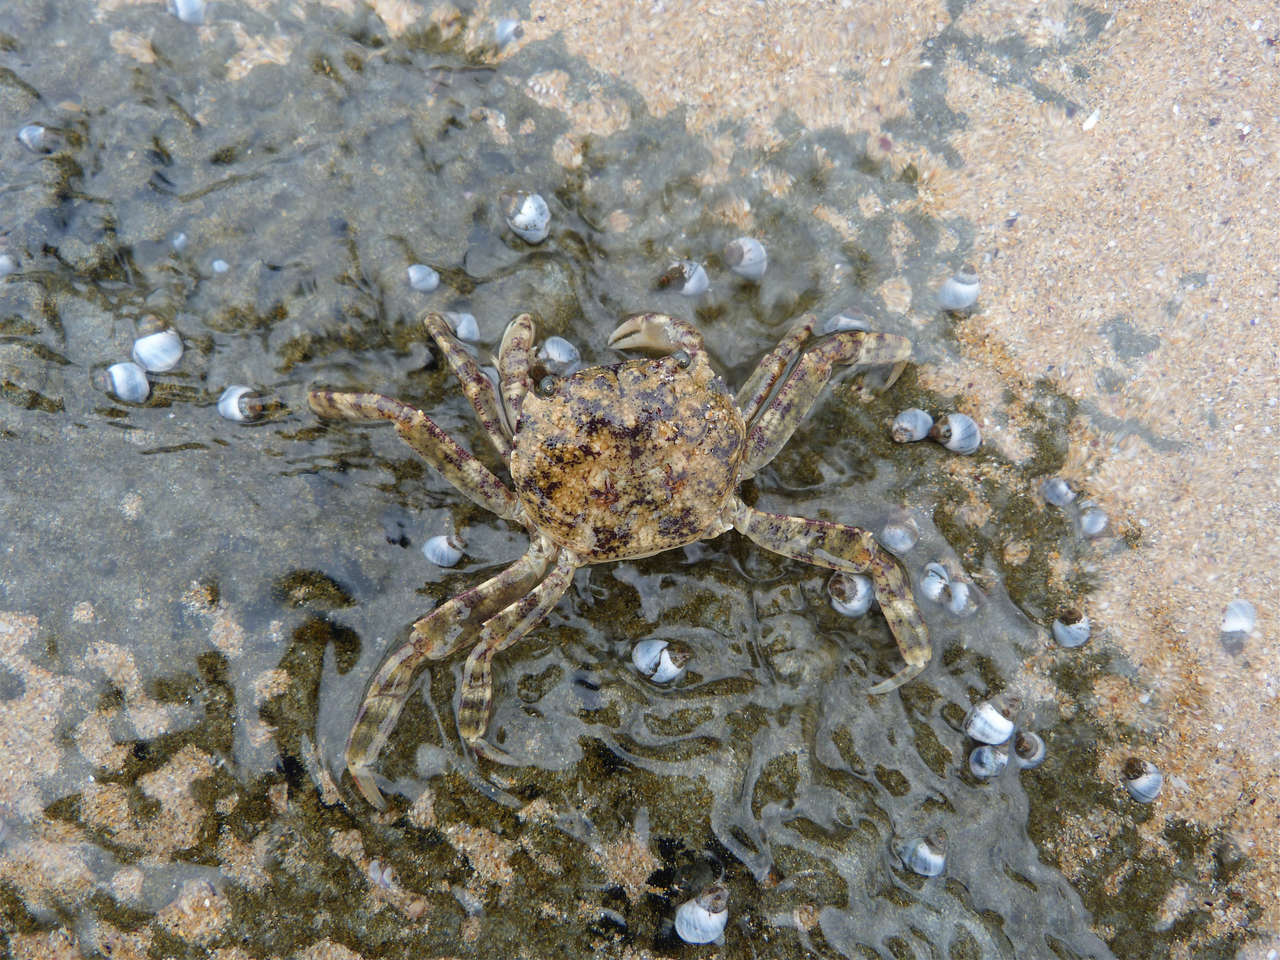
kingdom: Animalia
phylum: Arthropoda
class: Malacostraca
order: Decapoda
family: Leptograpsodidae
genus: Leptograpsodes
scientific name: Leptograpsodes octodentatus
